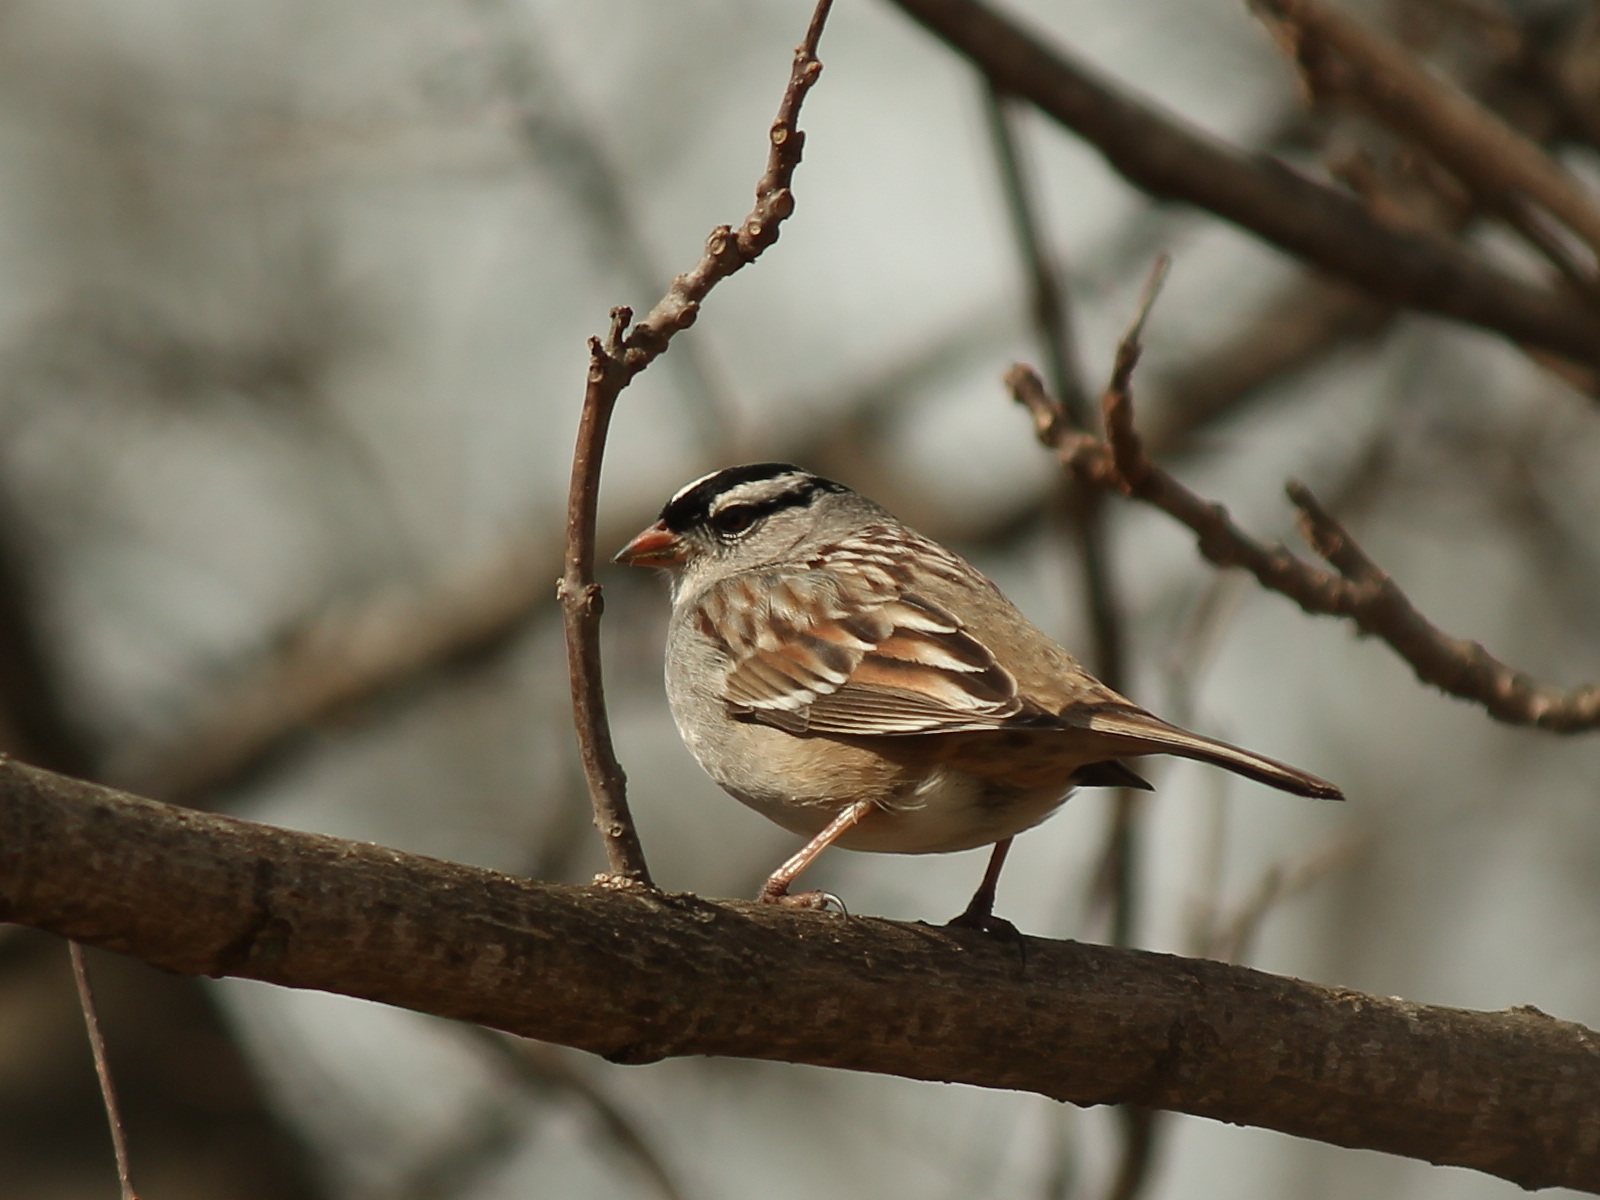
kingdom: Animalia
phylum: Chordata
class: Aves
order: Passeriformes
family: Passerellidae
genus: Zonotrichia
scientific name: Zonotrichia leucophrys
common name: White-crowned sparrow
